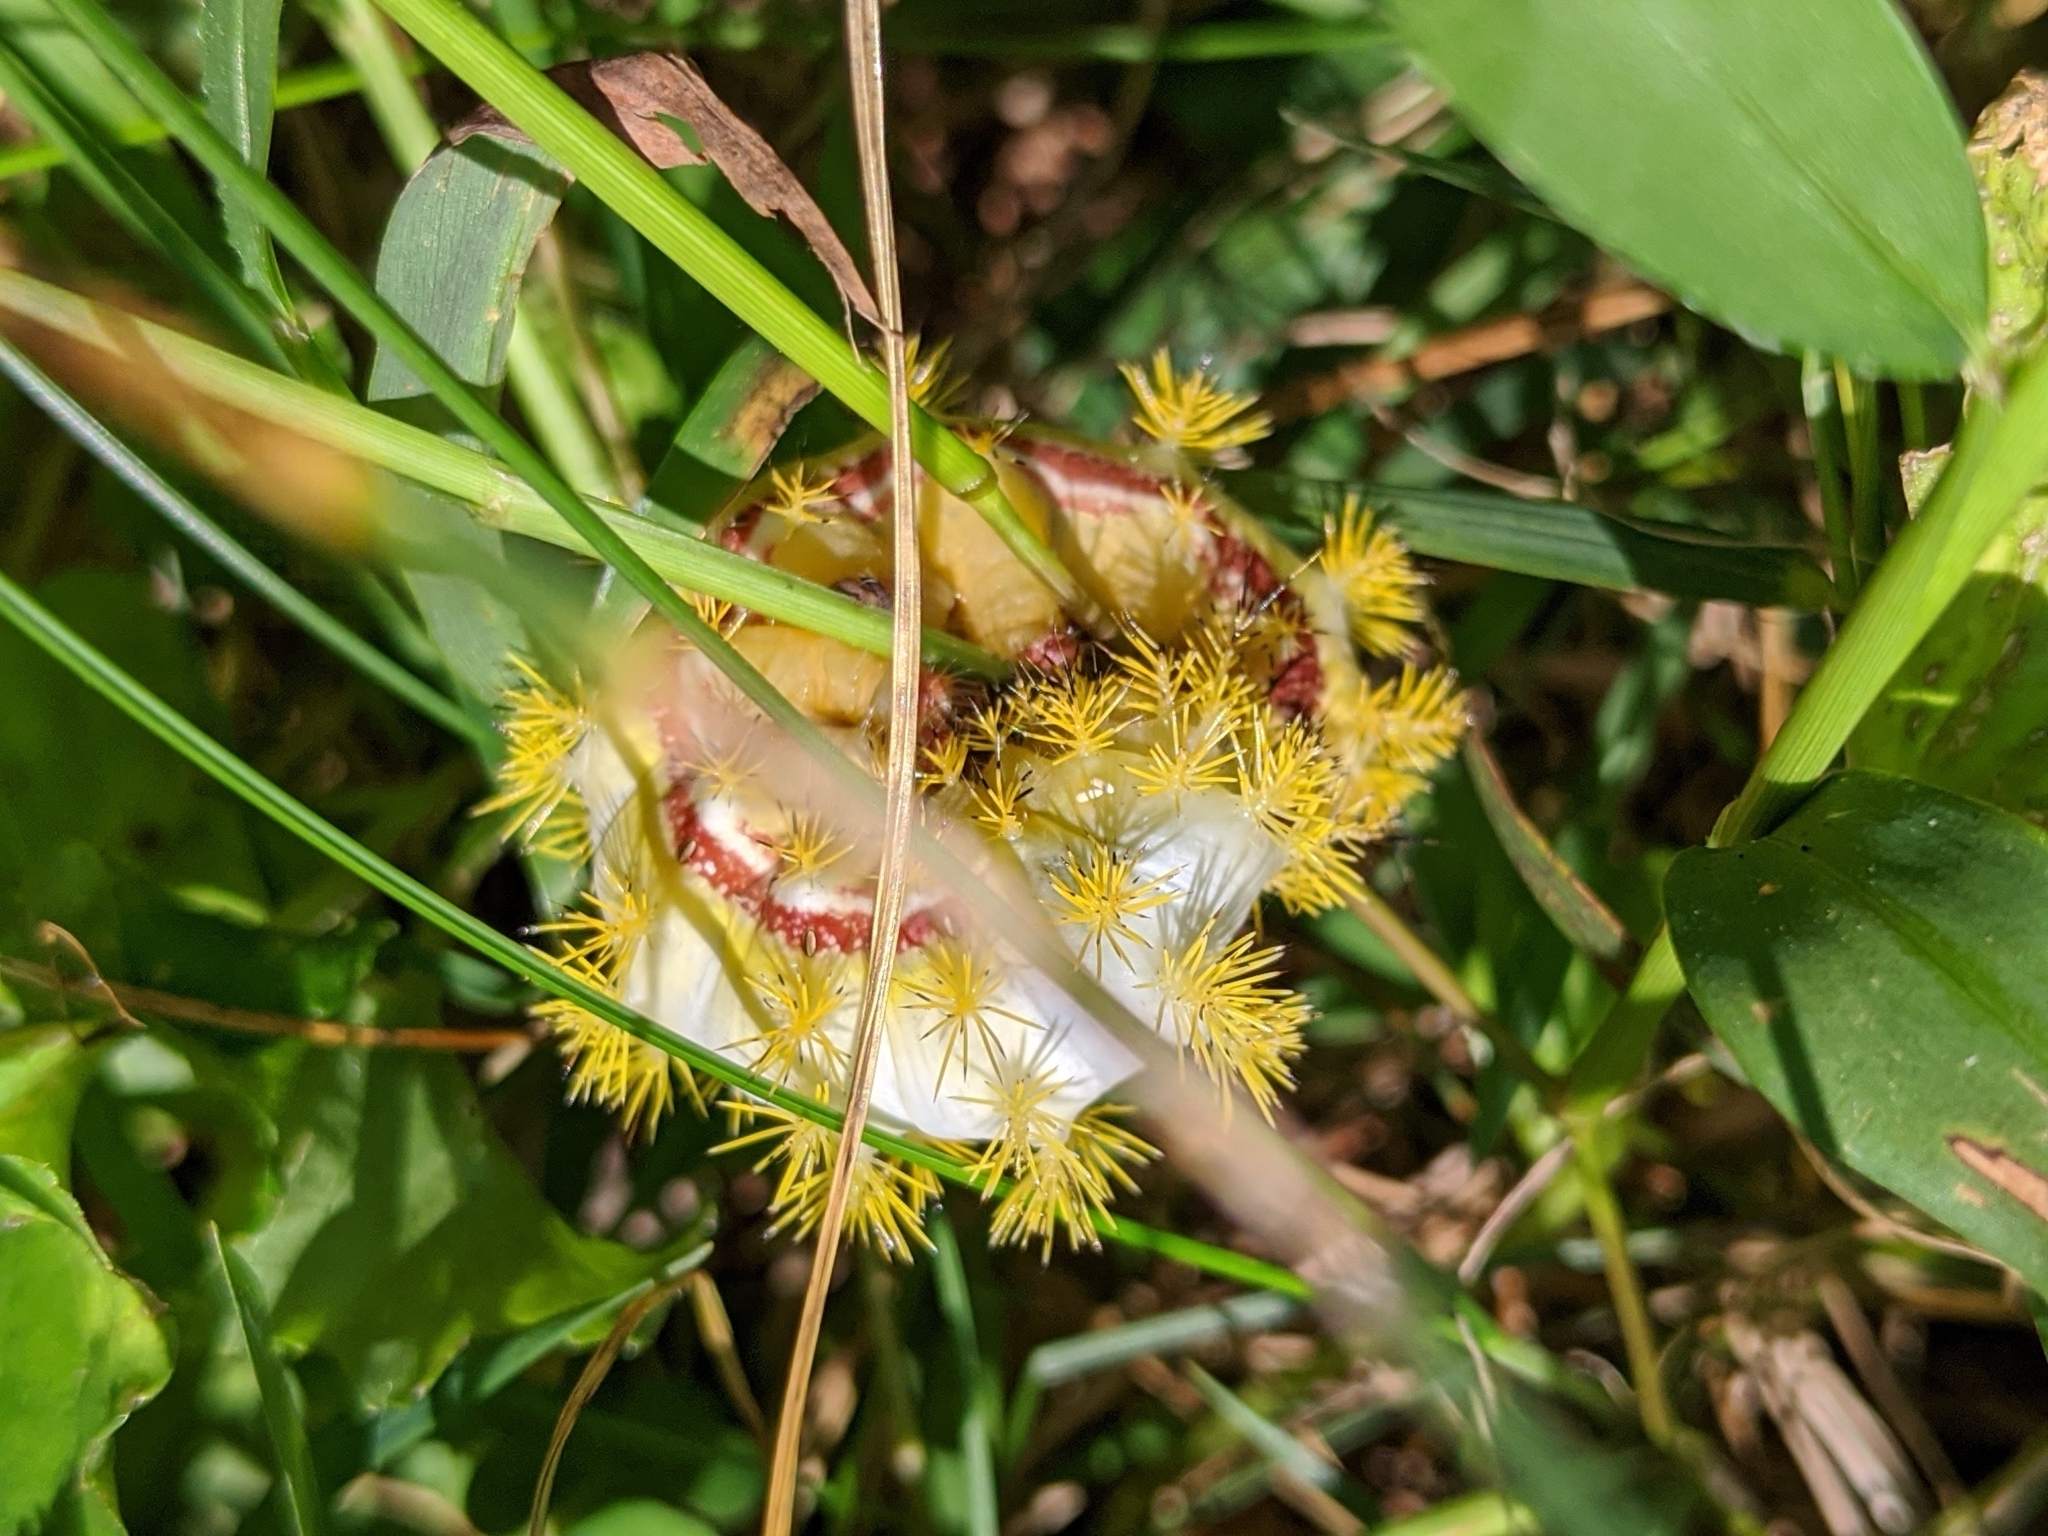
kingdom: Animalia
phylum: Arthropoda
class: Insecta
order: Lepidoptera
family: Saturniidae
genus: Automeris
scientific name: Automeris io
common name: Io moth
